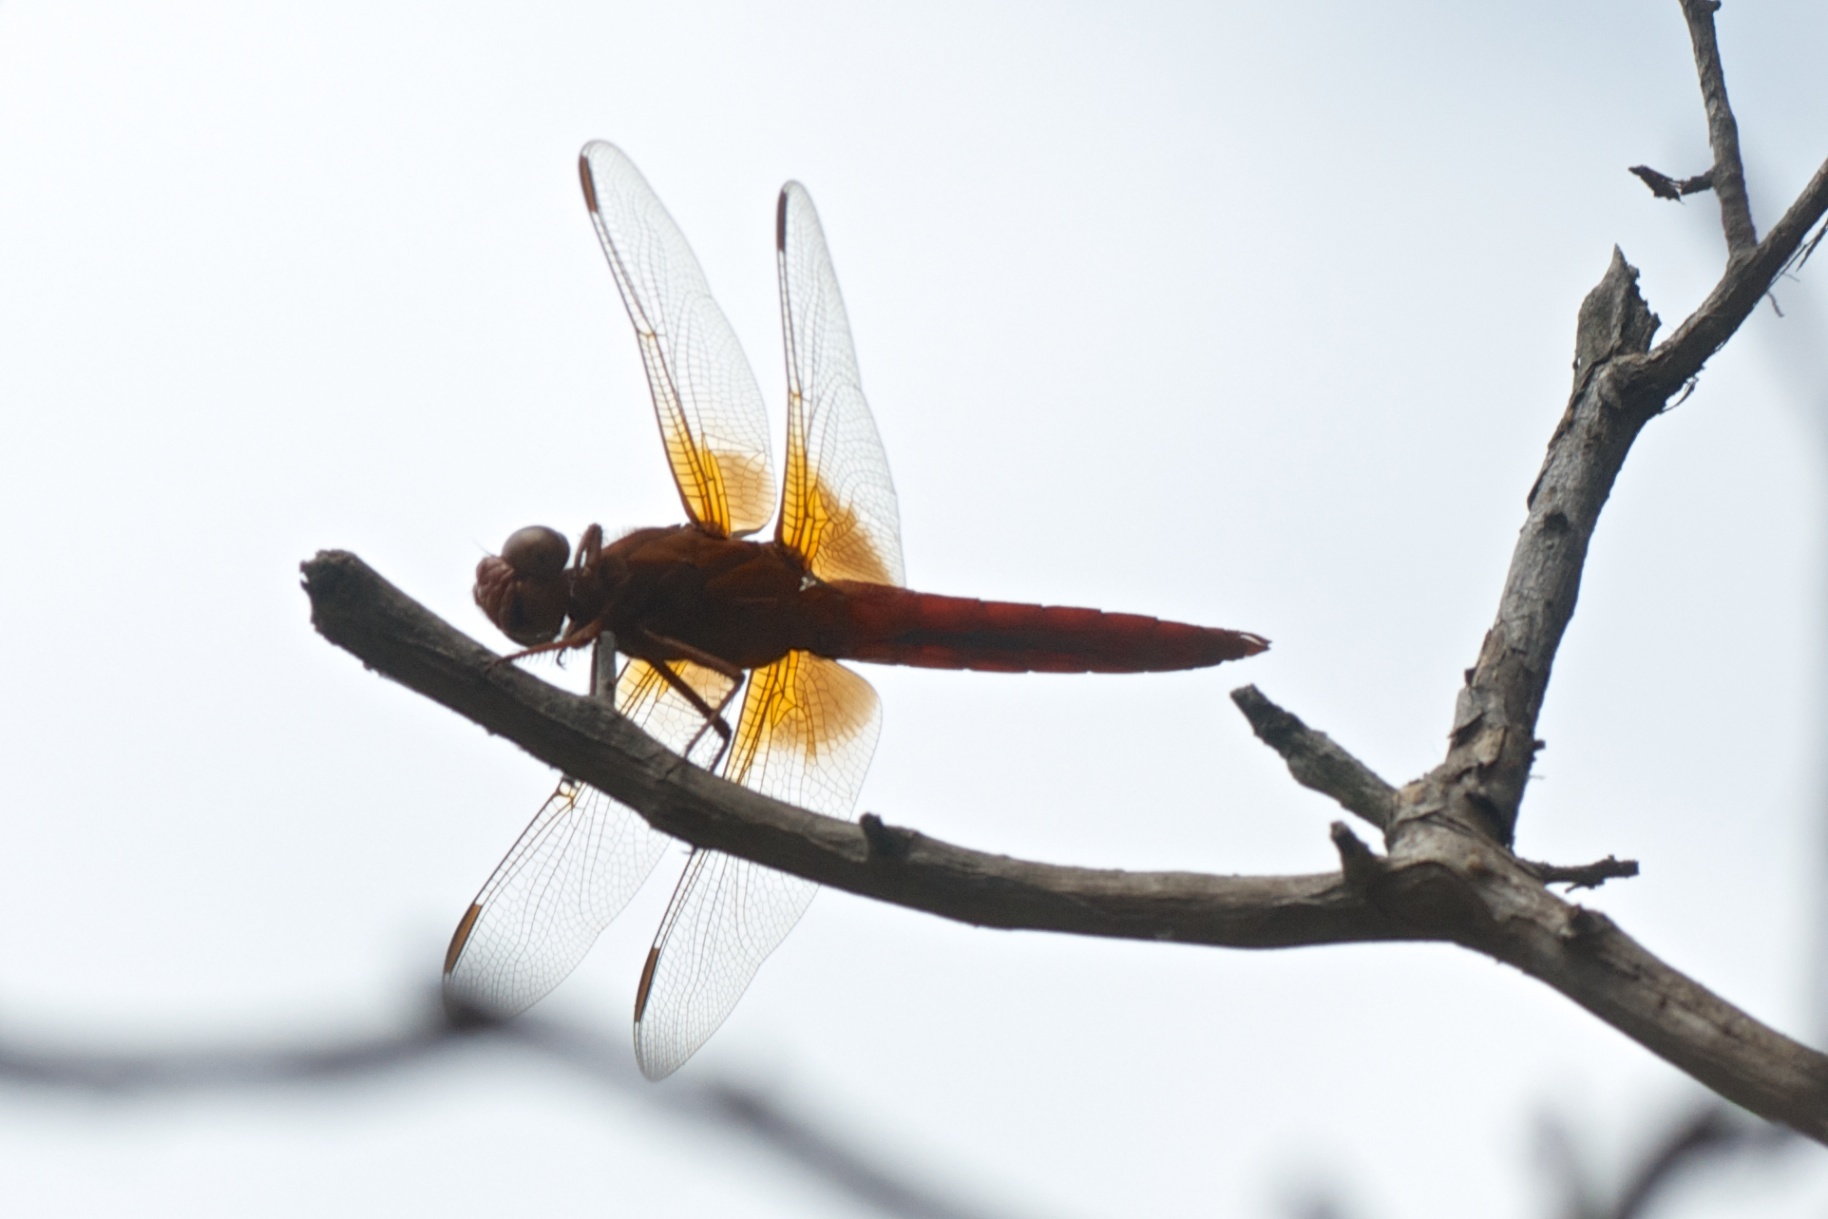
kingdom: Animalia
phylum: Arthropoda
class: Insecta
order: Odonata
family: Libellulidae
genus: Libellula
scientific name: Libellula croceipennis
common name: Neon skimmer
